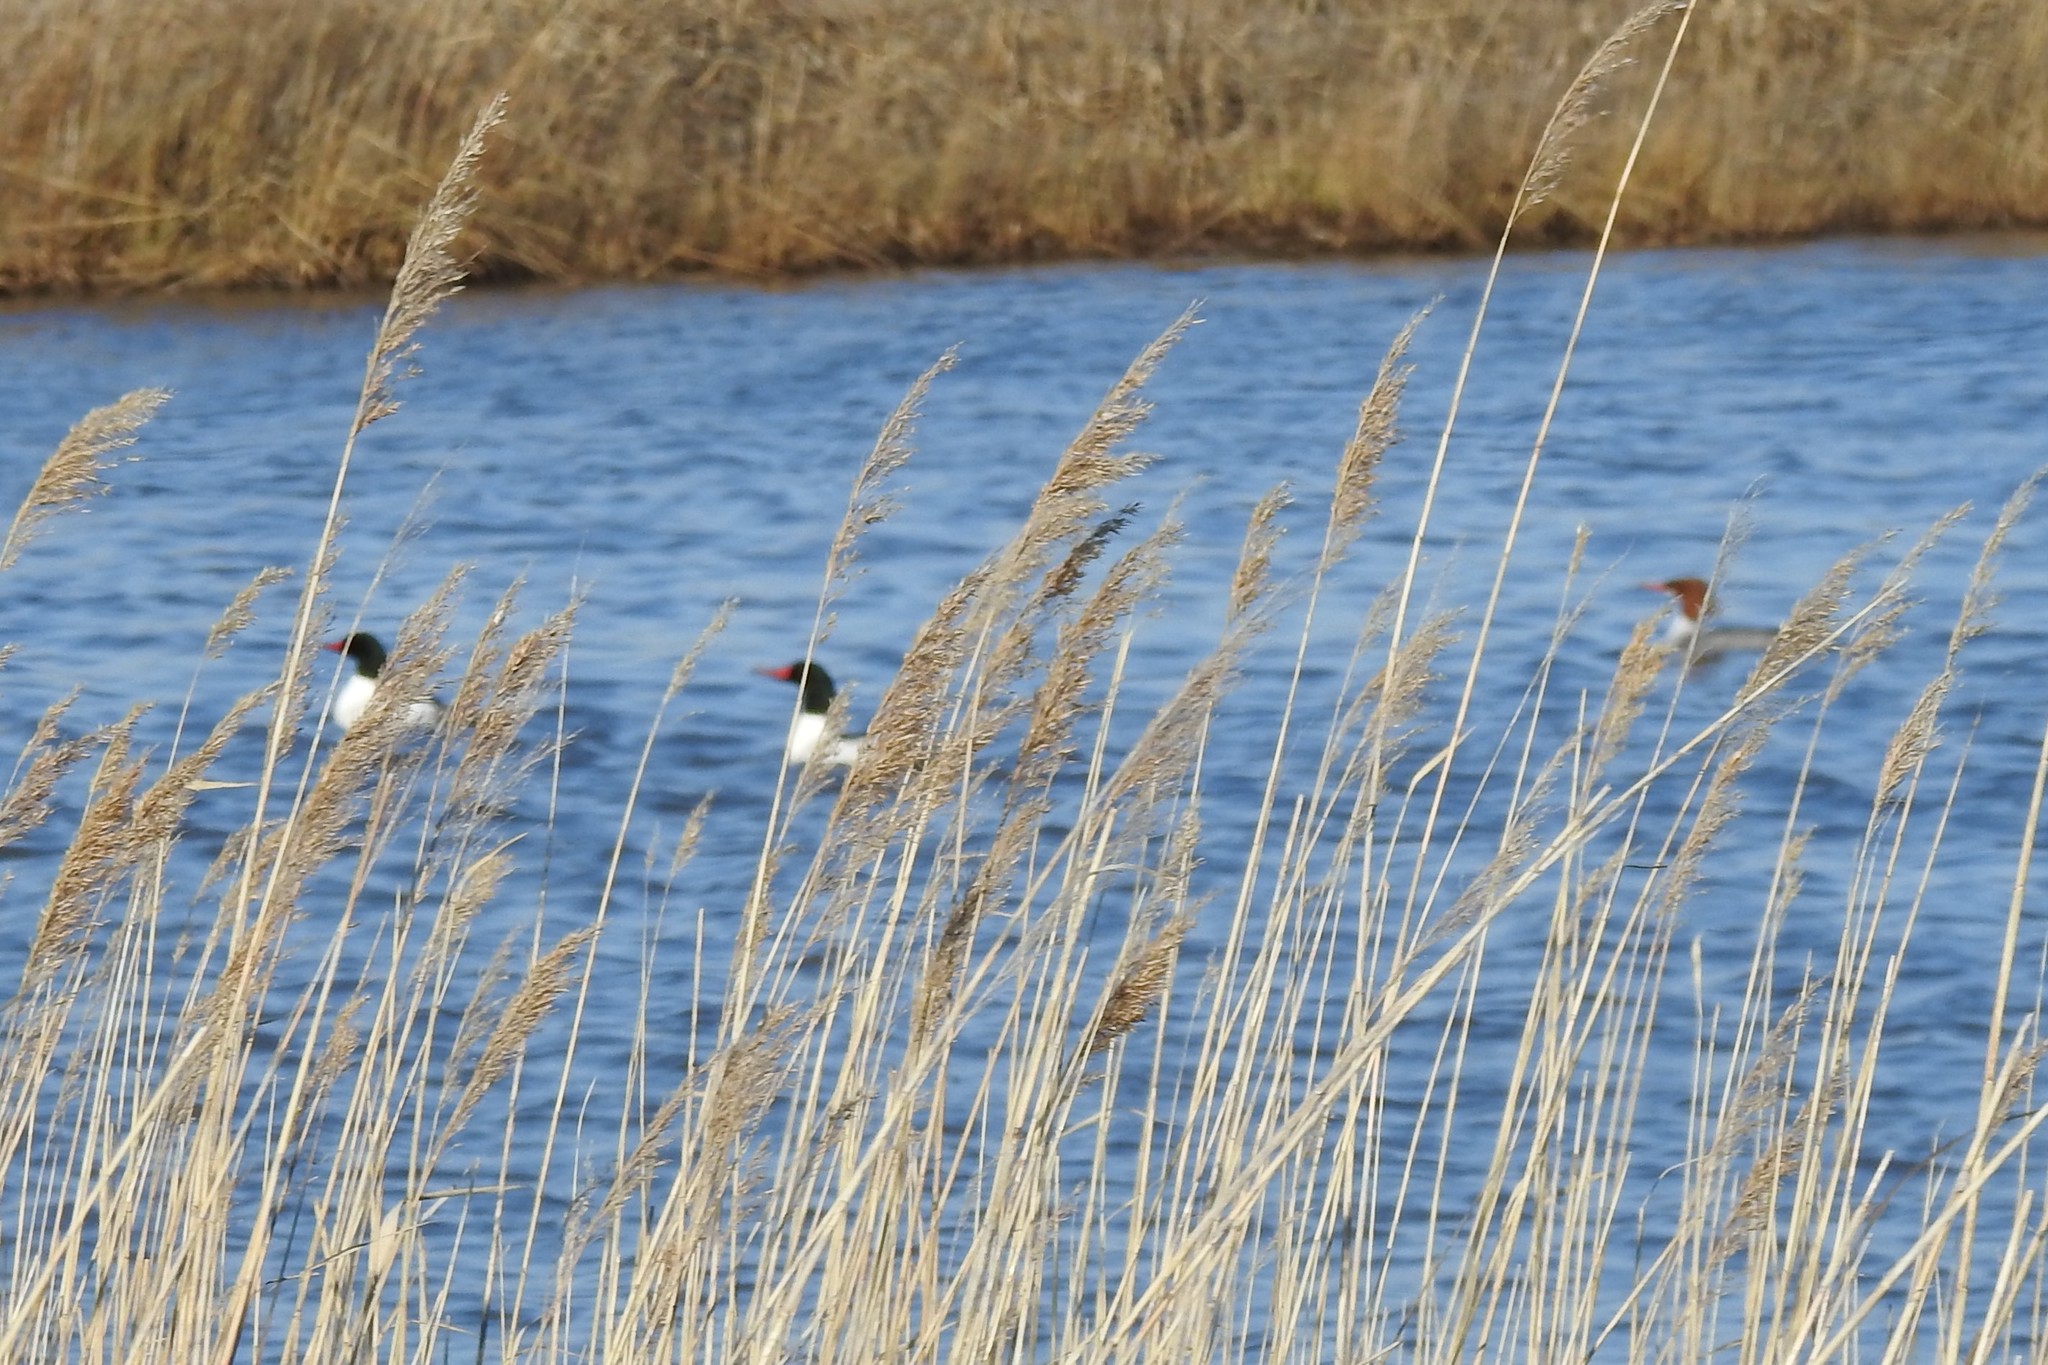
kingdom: Animalia
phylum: Chordata
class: Aves
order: Anseriformes
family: Anatidae
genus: Mergus
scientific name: Mergus merganser
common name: Common merganser
